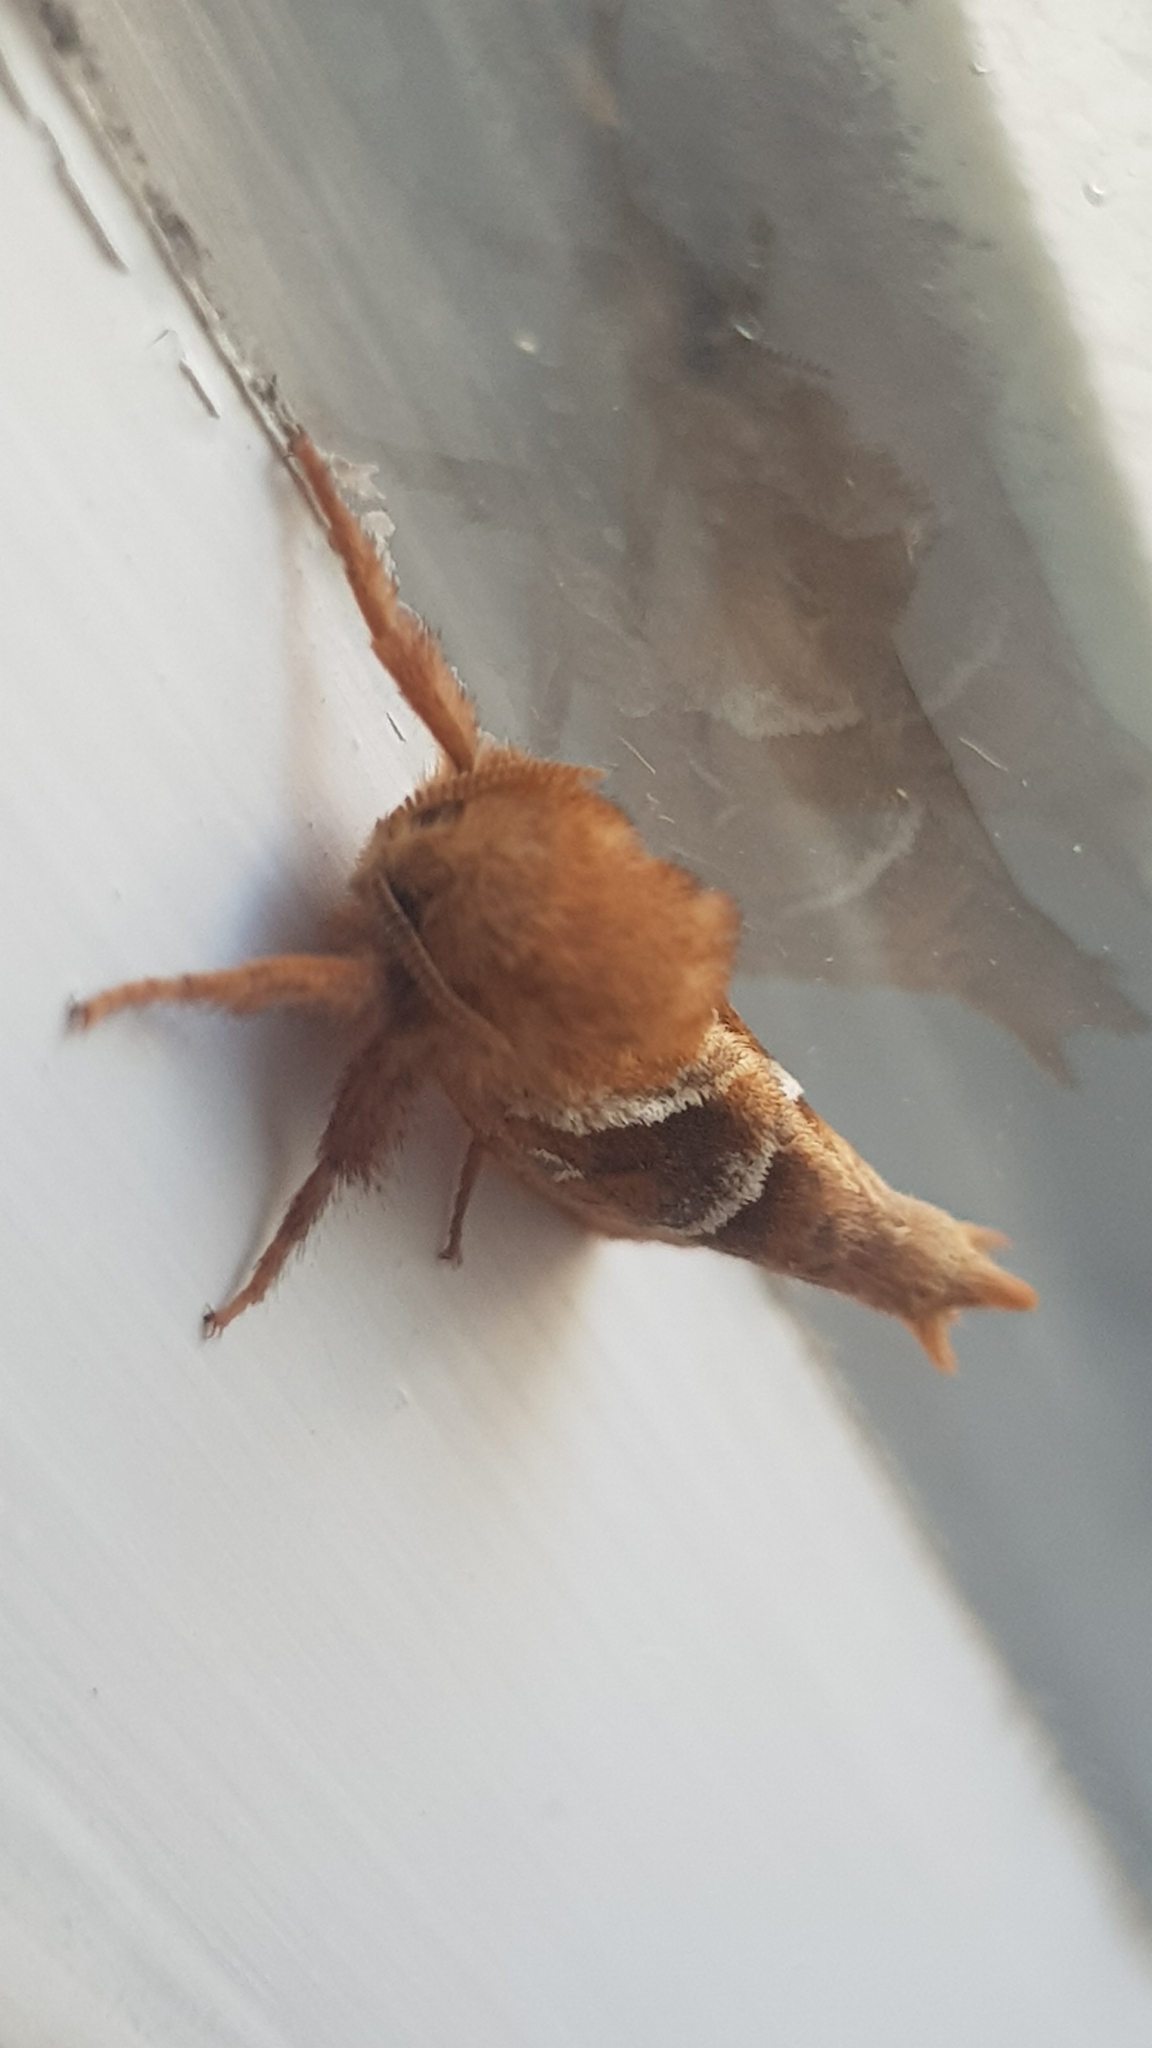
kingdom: Animalia
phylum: Arthropoda
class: Insecta
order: Lepidoptera
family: Hepialidae
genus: Triodia
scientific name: Triodia sylvina
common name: Orange swift
